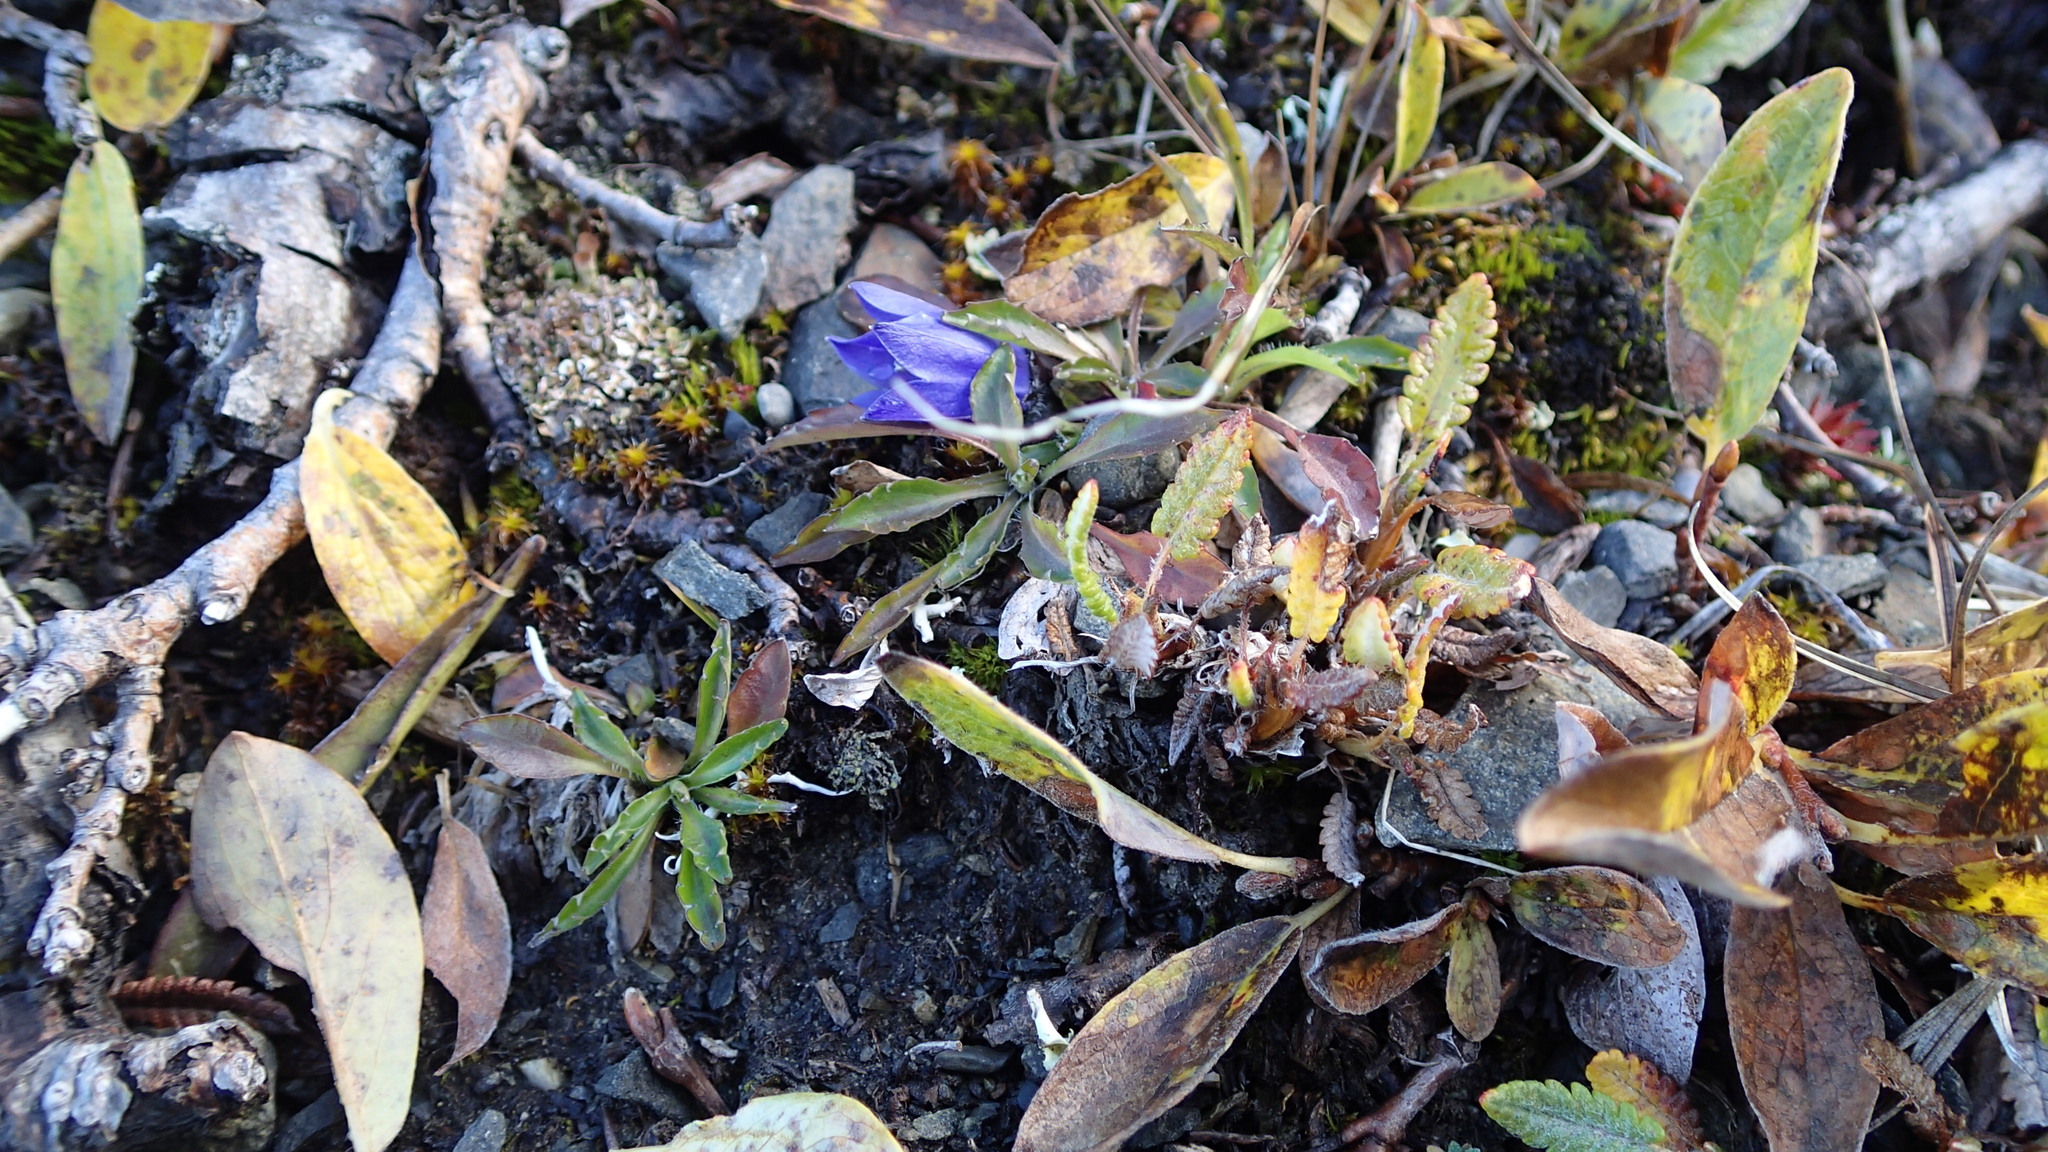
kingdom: Plantae
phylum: Tracheophyta
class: Magnoliopsida
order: Asterales
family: Campanulaceae
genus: Campanula
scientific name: Campanula lasiocarpa
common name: Mountain harebell
